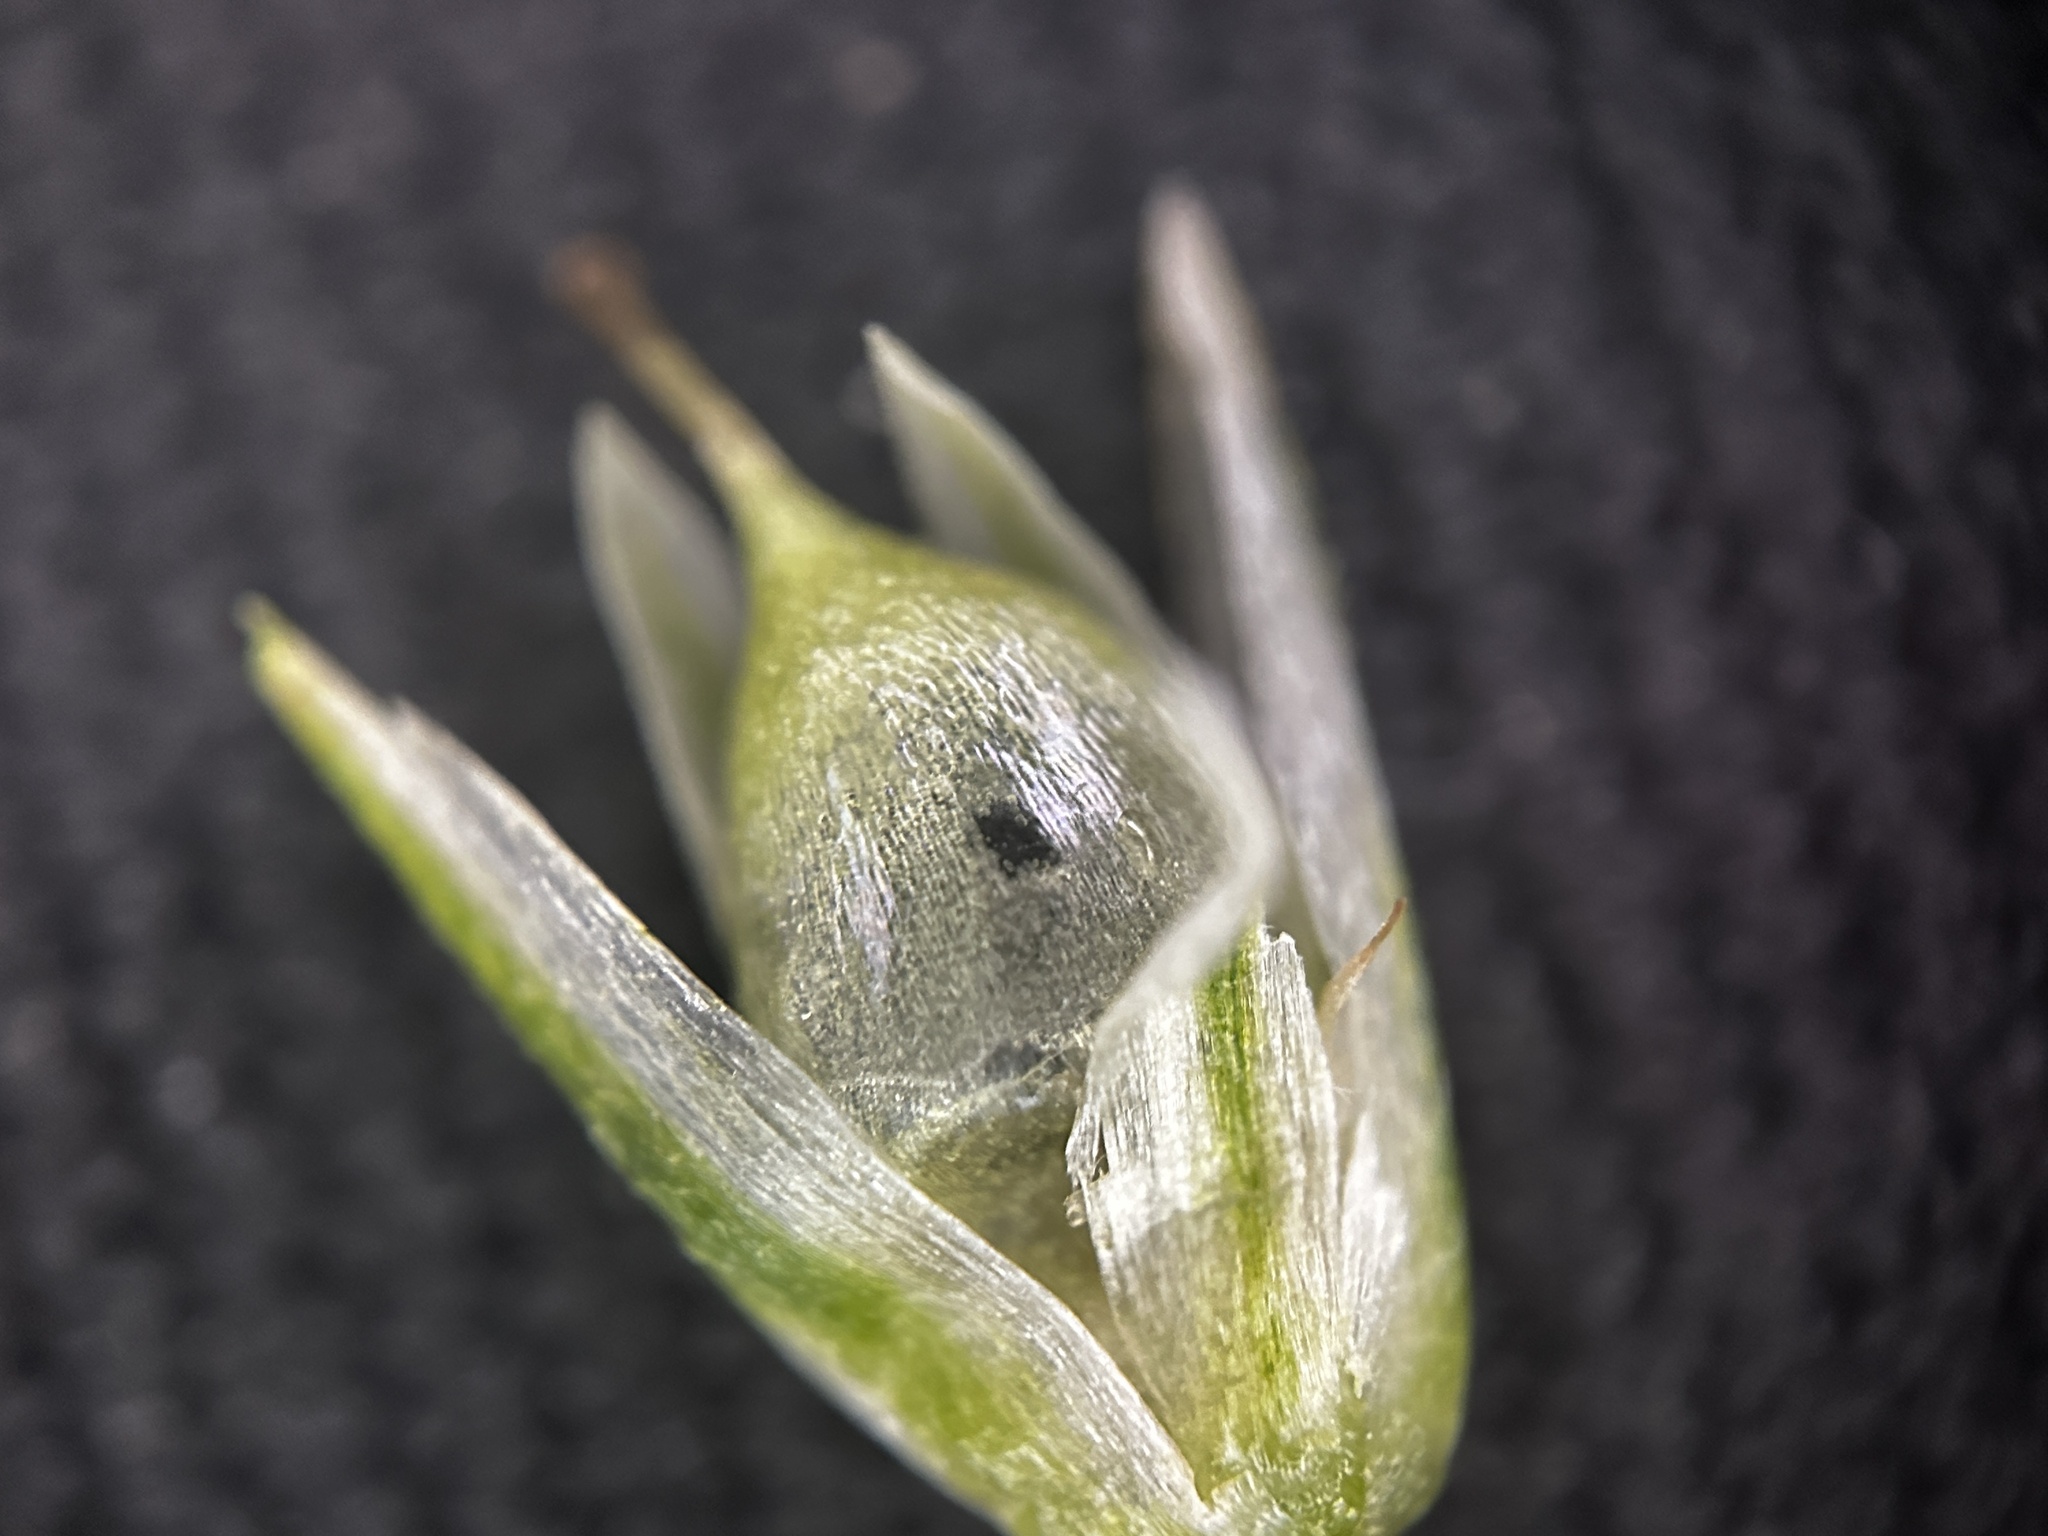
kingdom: Plantae
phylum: Tracheophyta
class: Magnoliopsida
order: Caryophyllales
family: Amaranthaceae
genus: Allmania
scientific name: Allmania nodiflora
